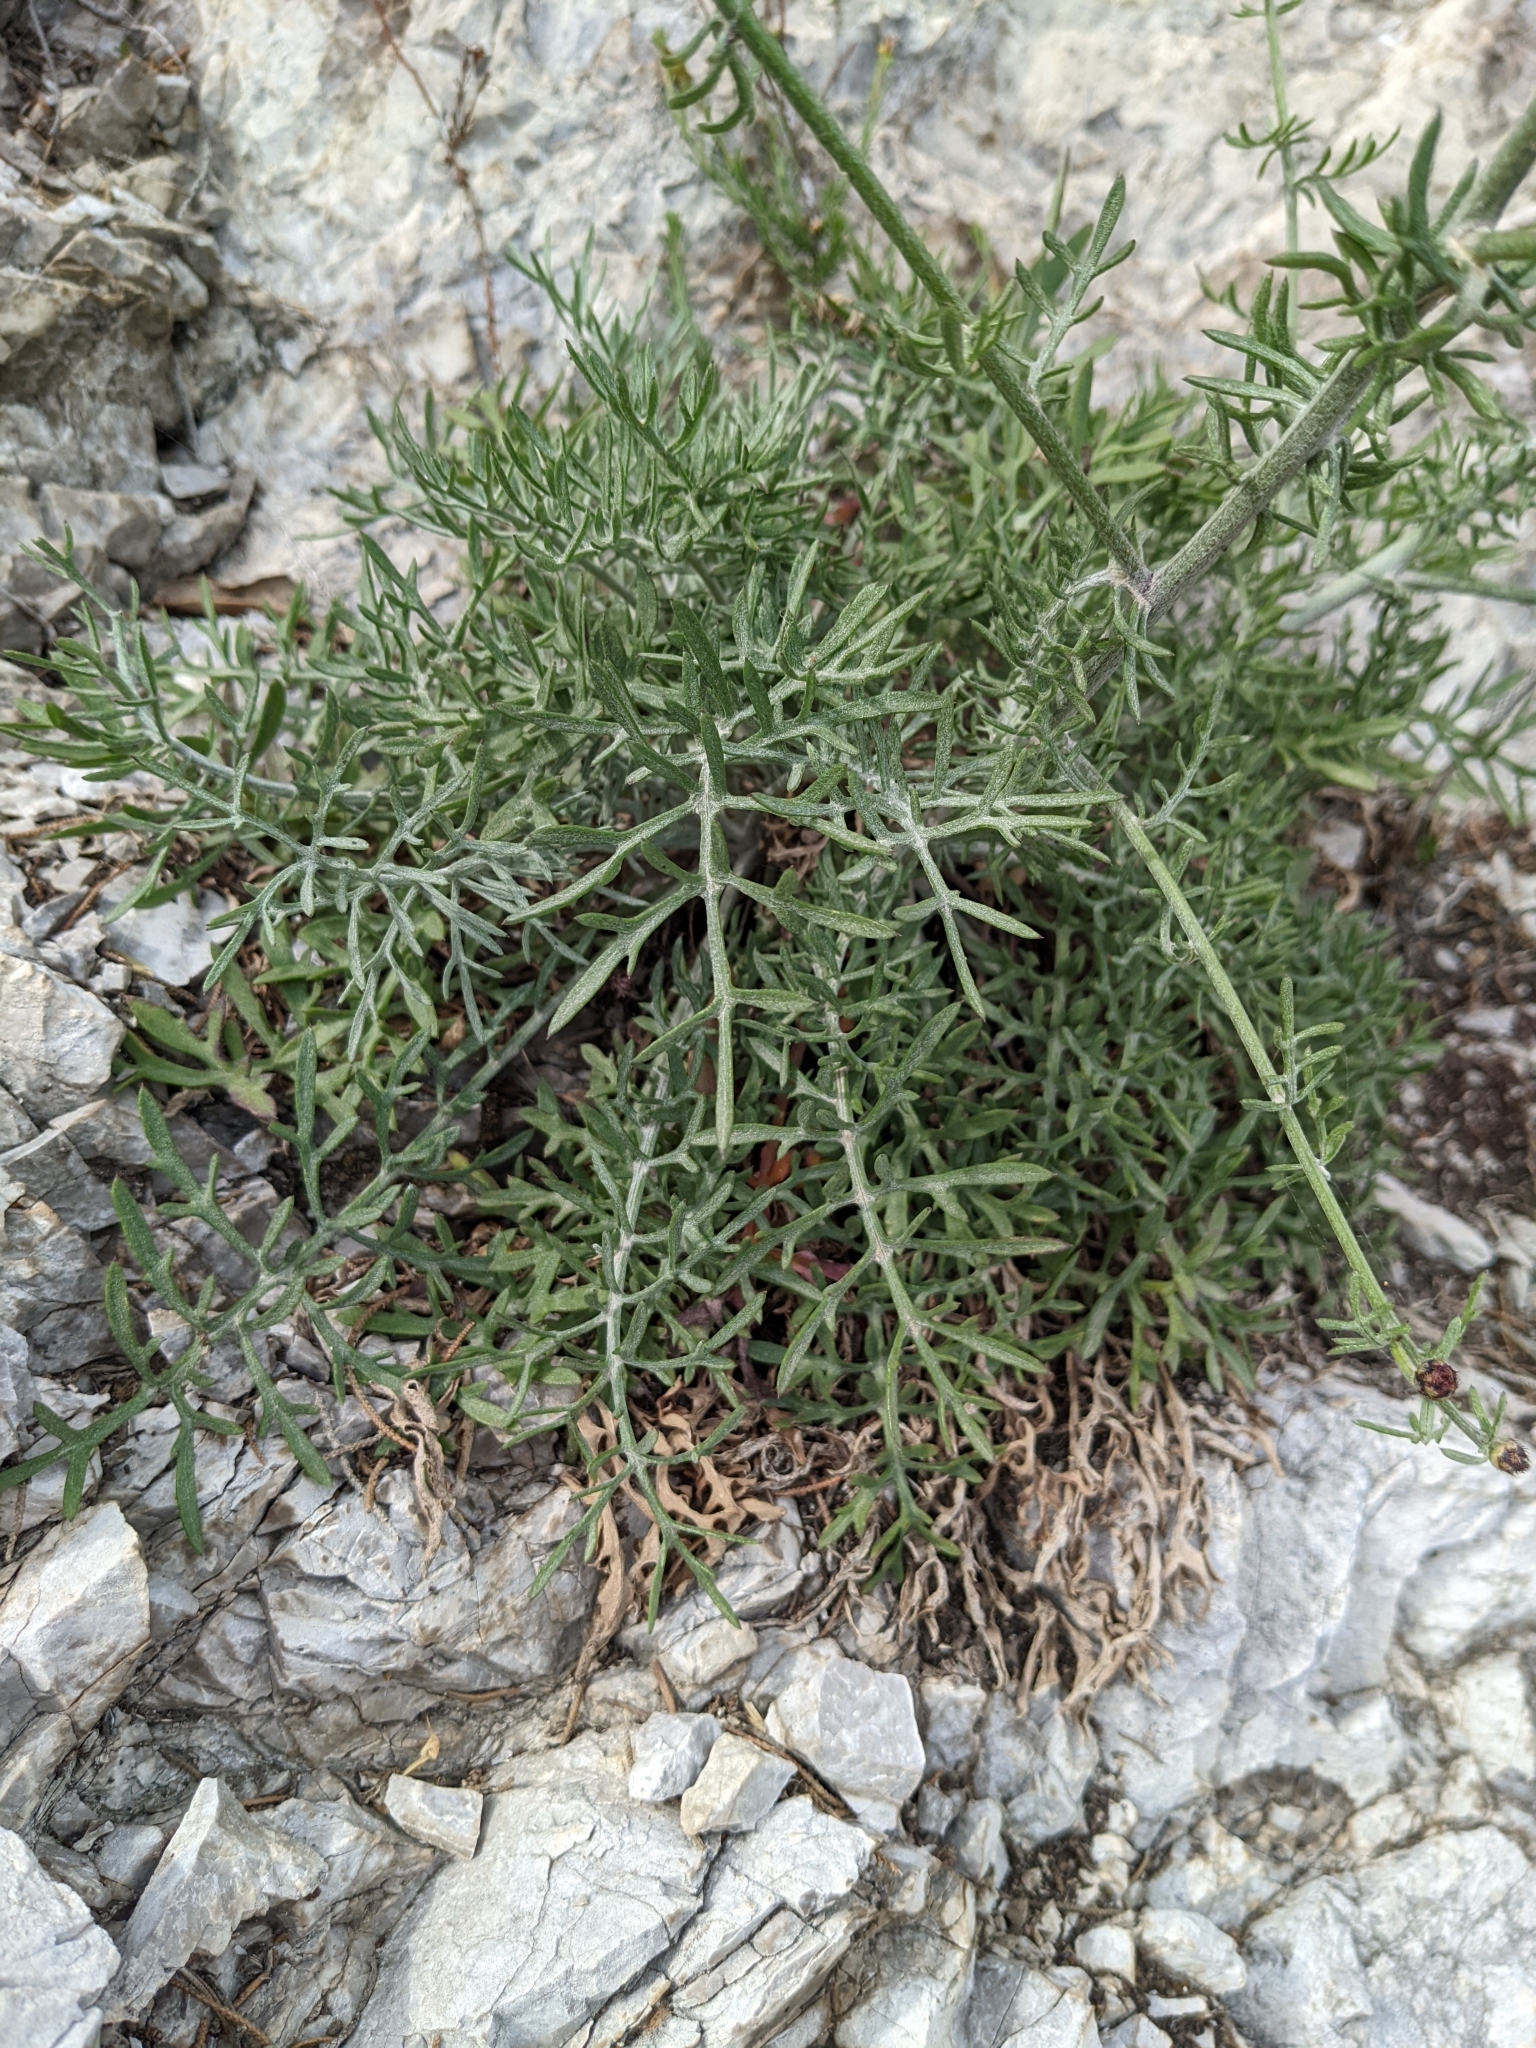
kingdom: Plantae
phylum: Tracheophyta
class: Magnoliopsida
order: Asterales
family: Asteraceae
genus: Centaurea
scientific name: Centaurea cineraria
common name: Dusty miller
